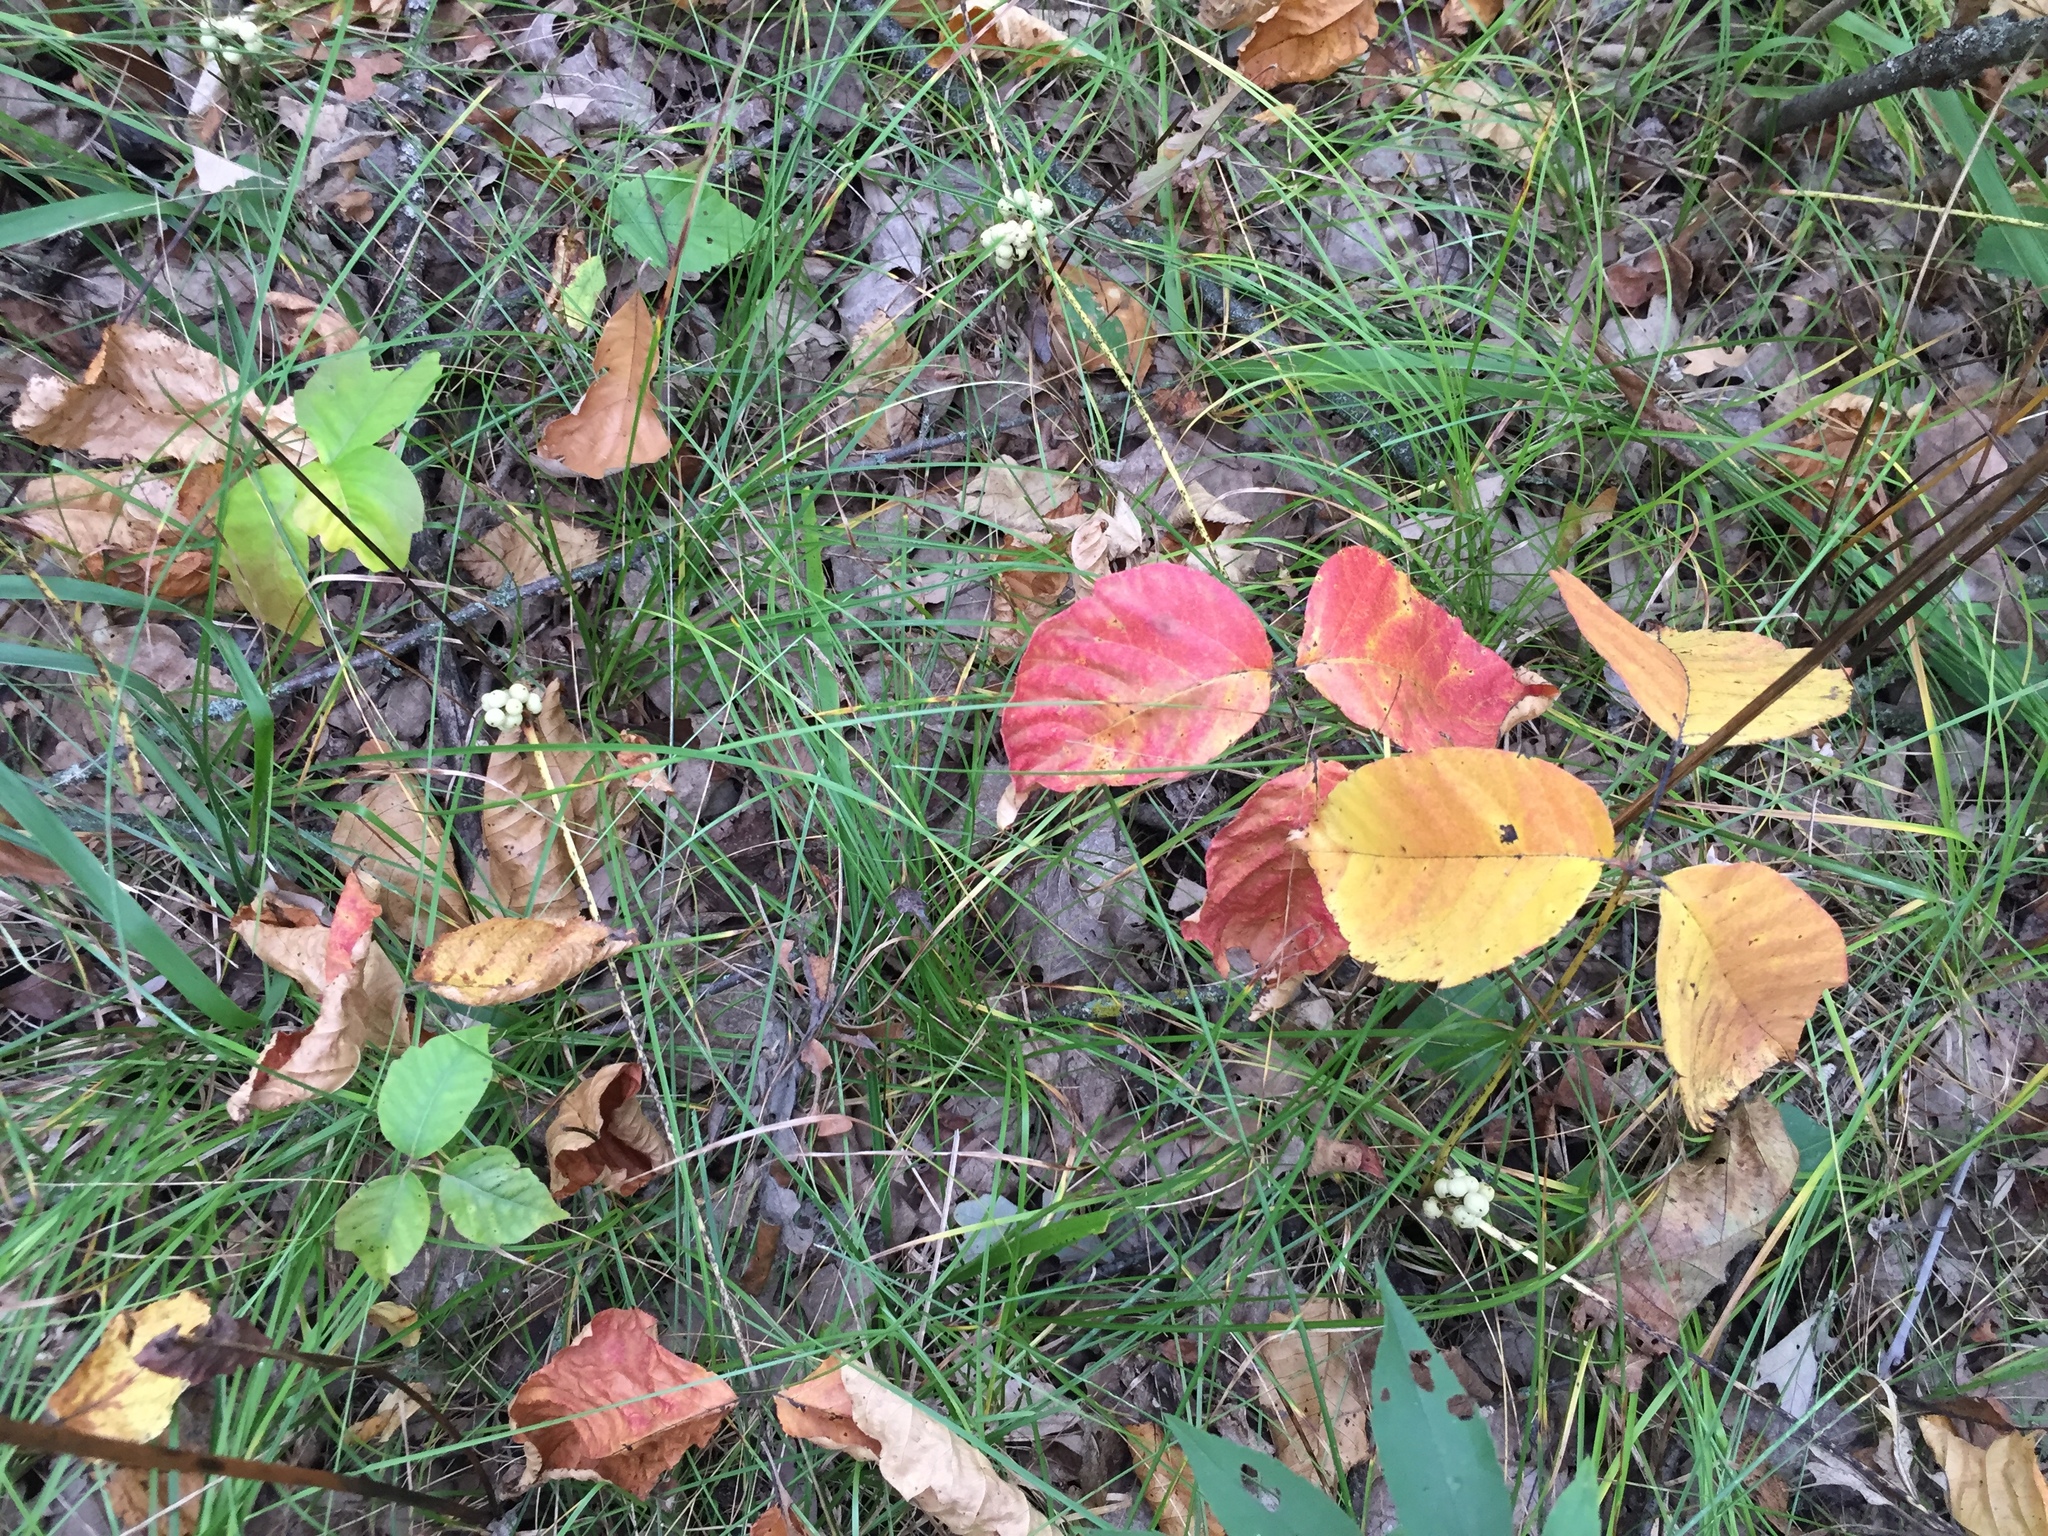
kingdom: Plantae
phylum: Tracheophyta
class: Magnoliopsida
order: Sapindales
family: Anacardiaceae
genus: Toxicodendron
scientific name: Toxicodendron rydbergii
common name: Rydberg's poison-ivy
